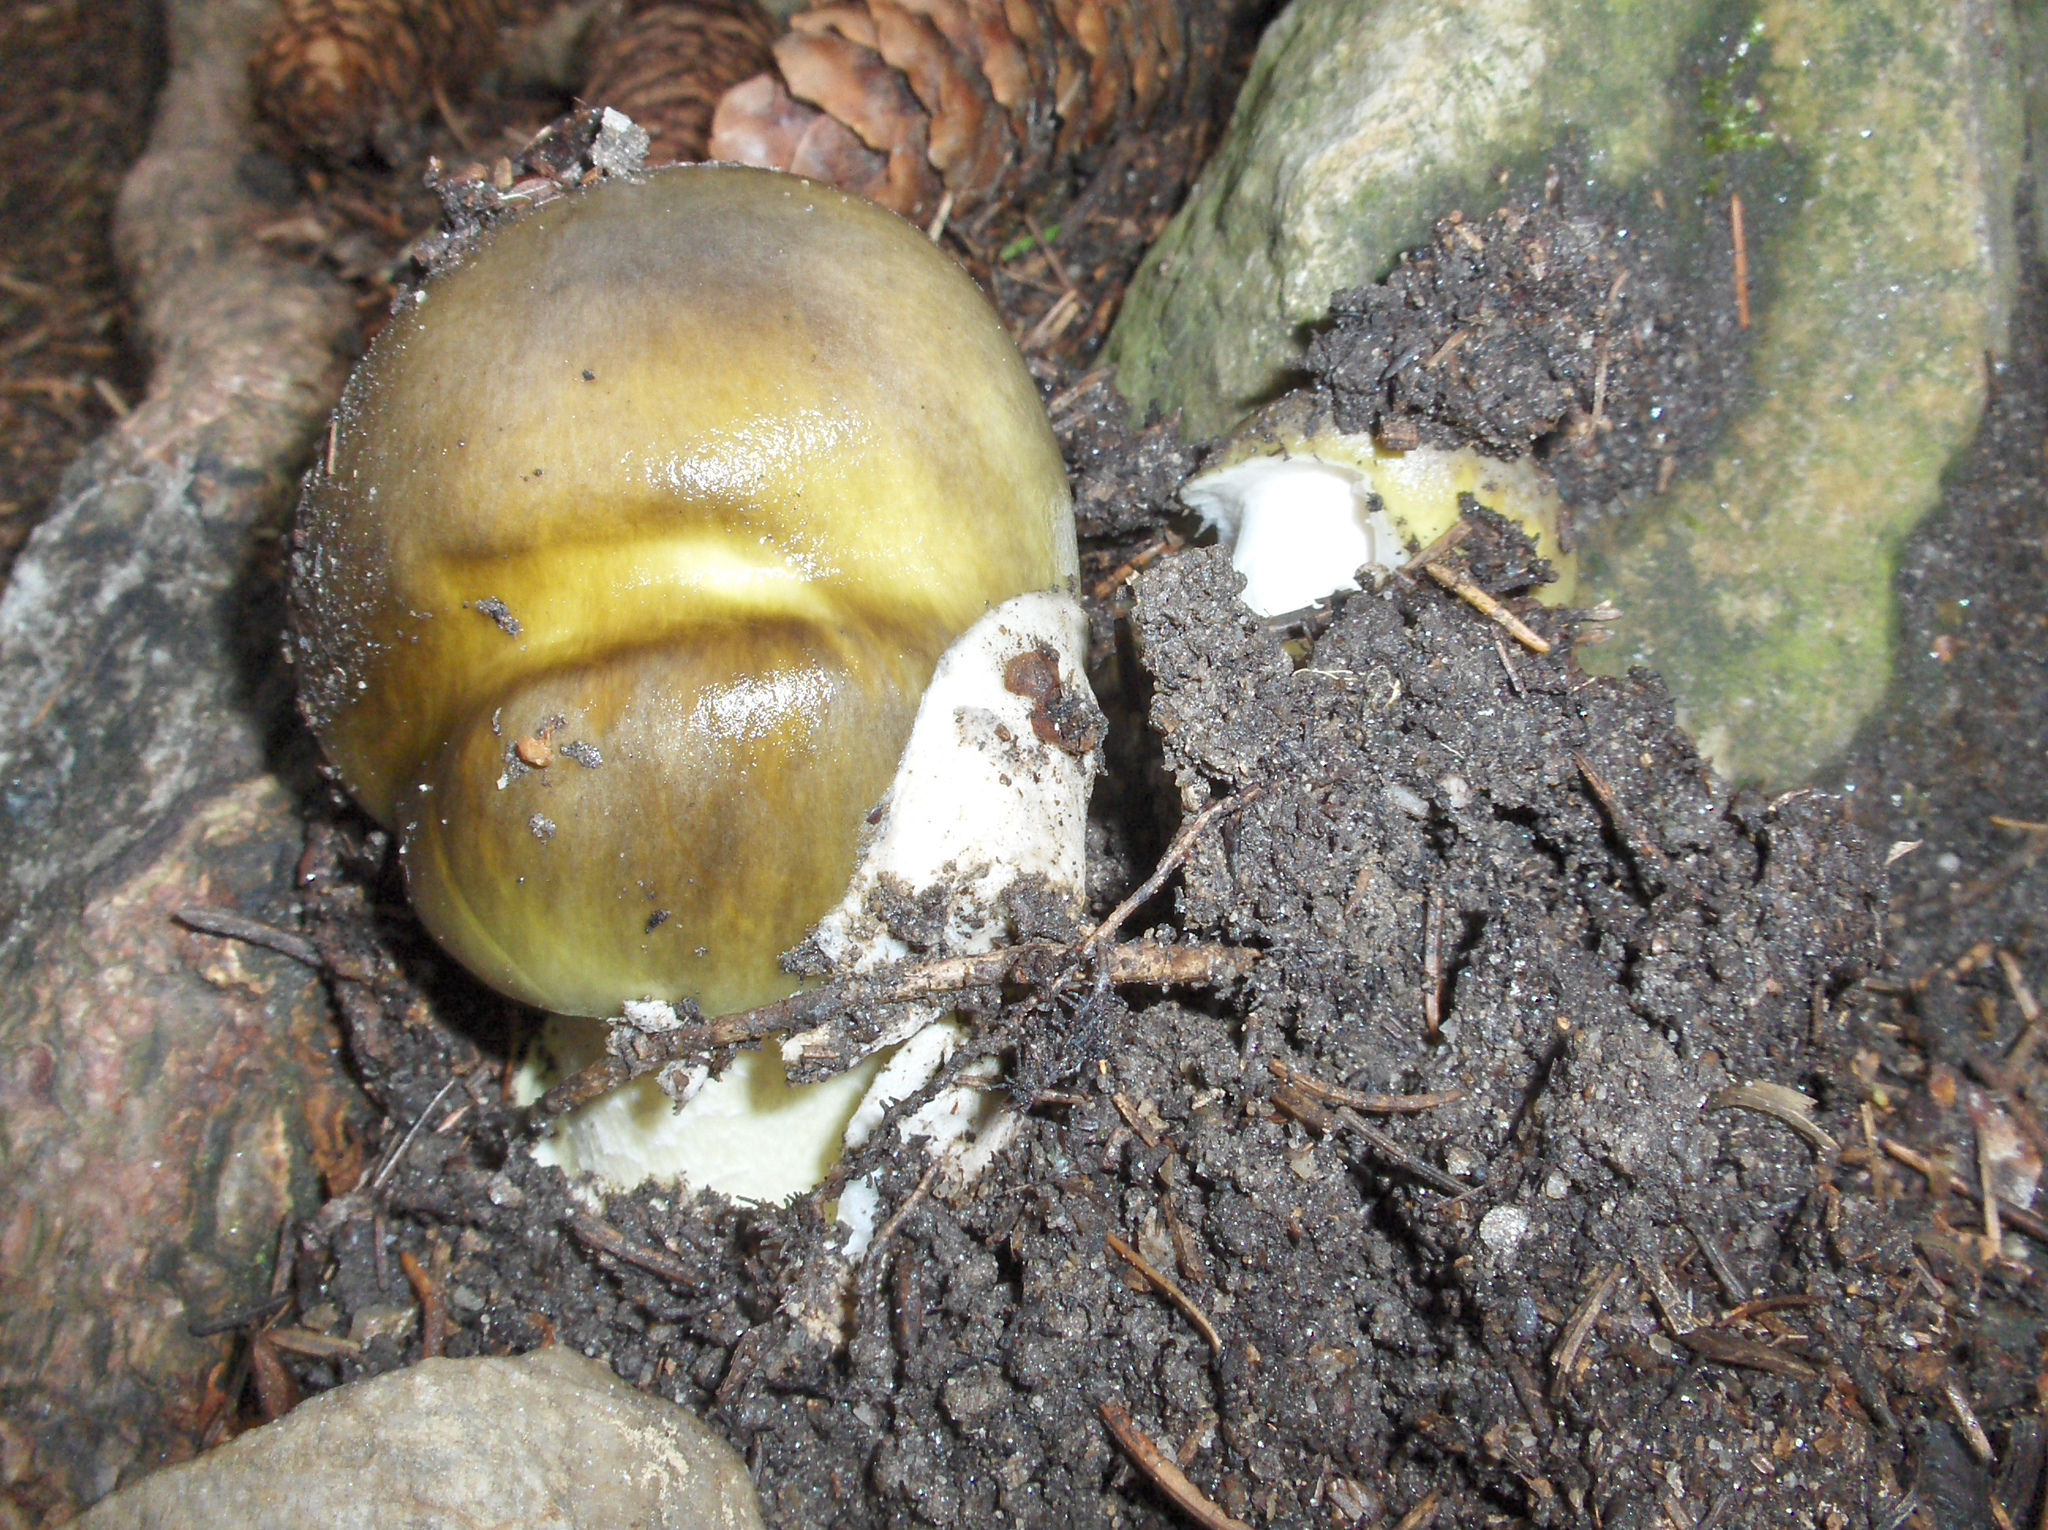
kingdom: Fungi
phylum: Basidiomycota
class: Agaricomycetes
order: Agaricales
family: Amanitaceae
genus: Amanita
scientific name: Amanita phalloides
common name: Death cap
